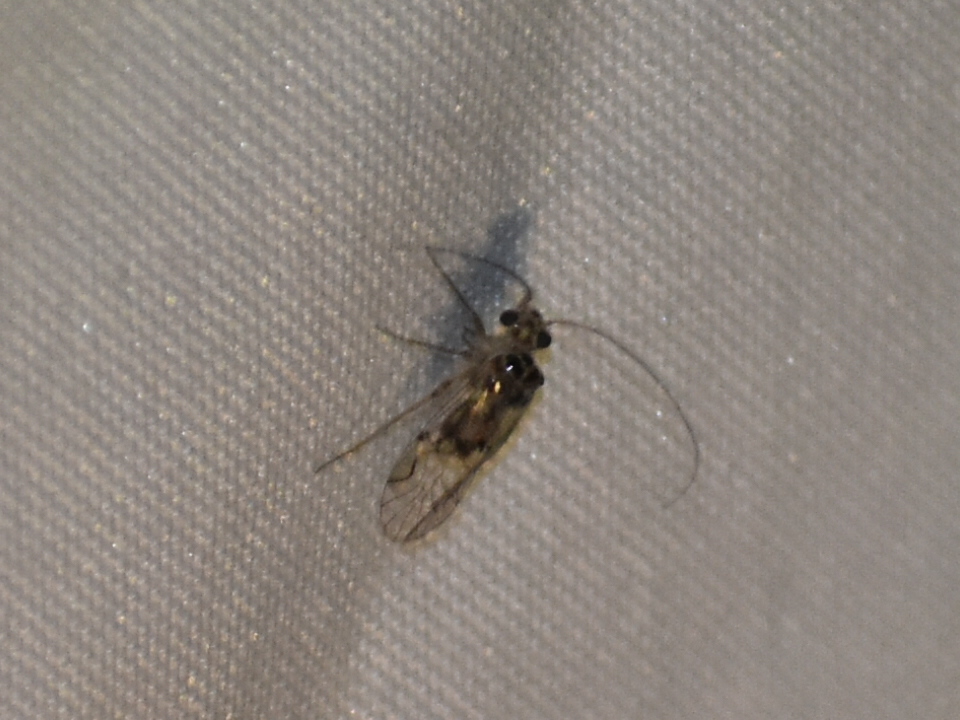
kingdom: Animalia
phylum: Arthropoda
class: Insecta
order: Psocodea
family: Psocidae
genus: Metylophorus
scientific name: Metylophorus purus
